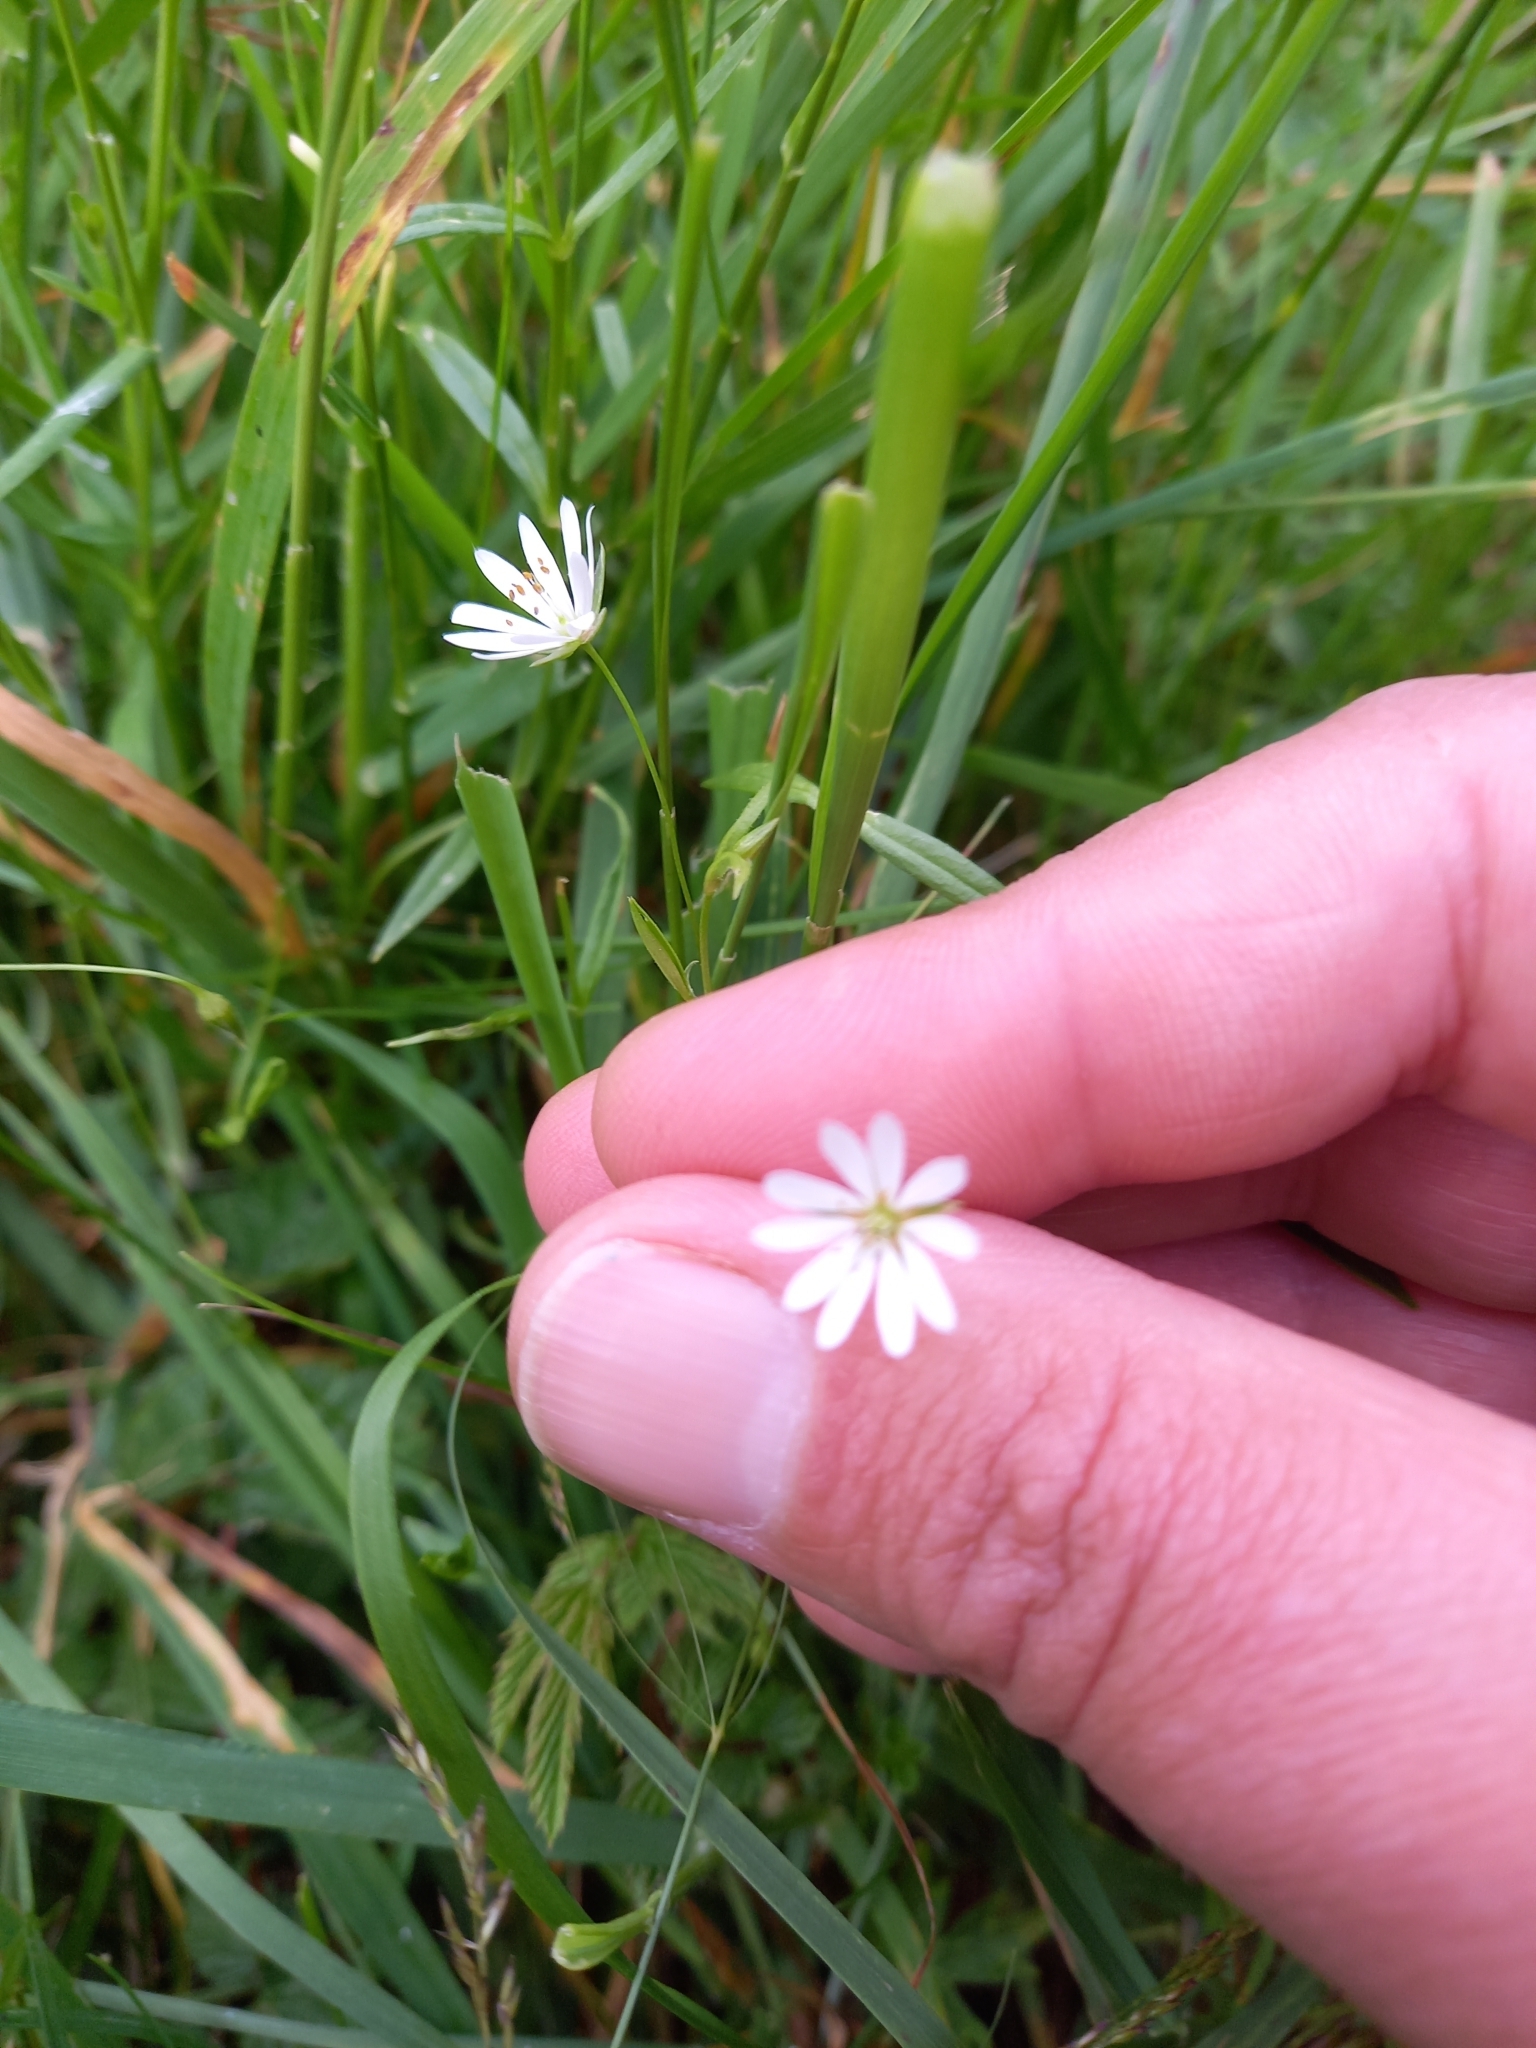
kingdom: Plantae
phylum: Tracheophyta
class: Magnoliopsida
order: Caryophyllales
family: Caryophyllaceae
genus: Stellaria
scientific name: Stellaria graminea
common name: Grass-like starwort
